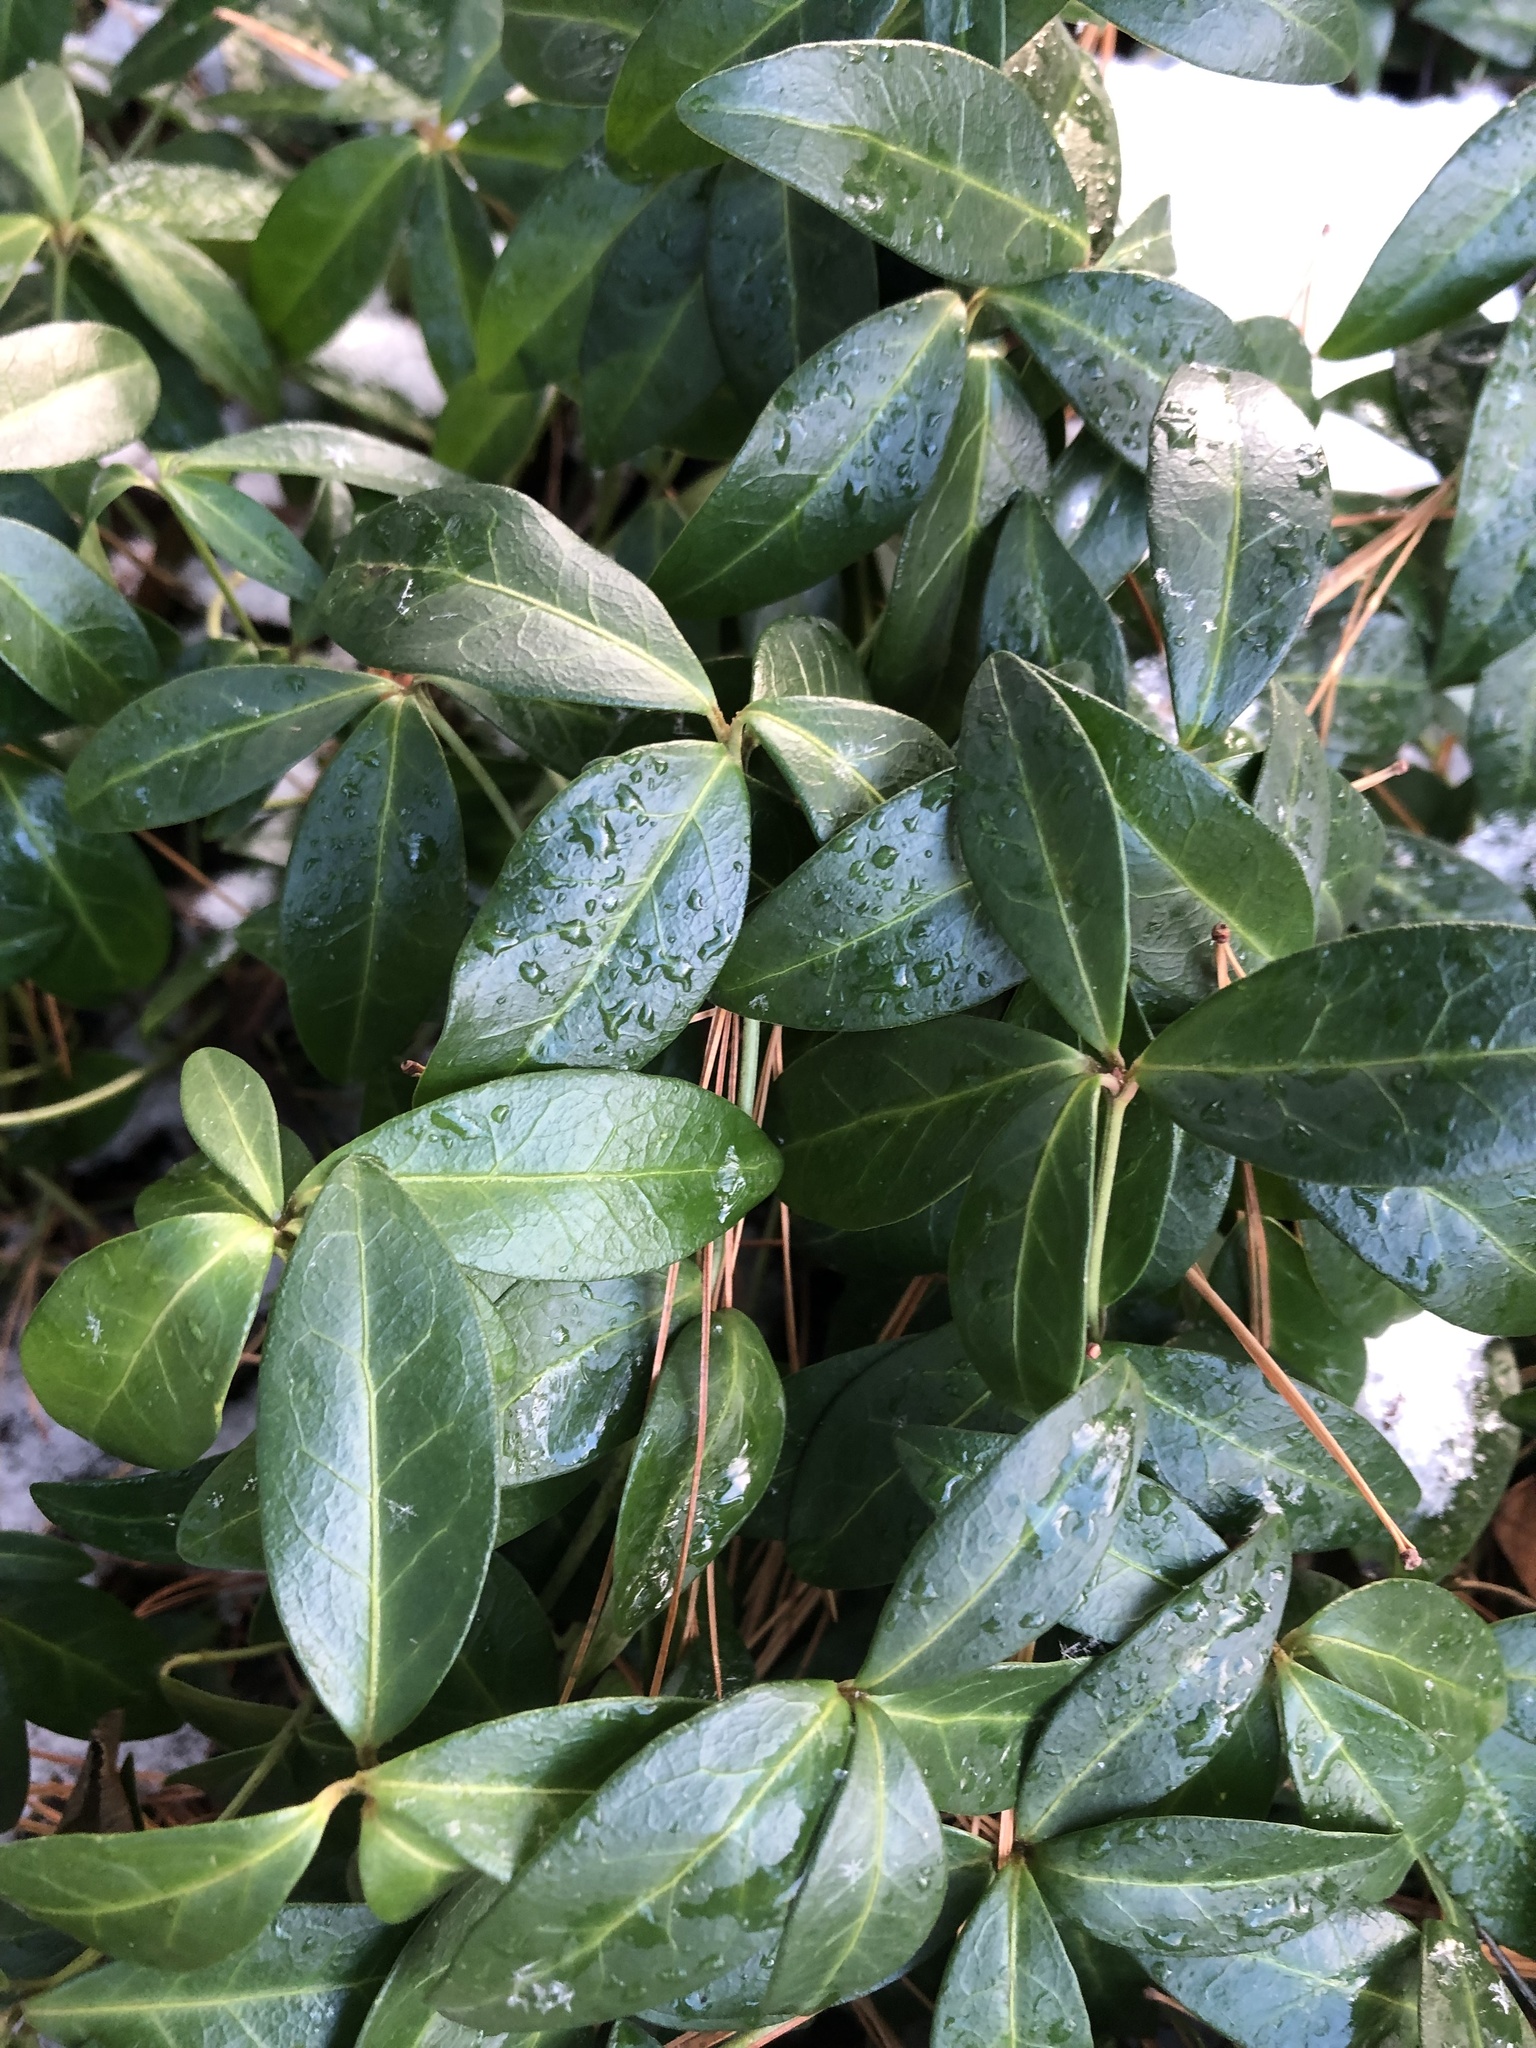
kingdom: Plantae
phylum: Tracheophyta
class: Magnoliopsida
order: Gentianales
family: Apocynaceae
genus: Vinca
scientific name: Vinca minor
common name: Lesser periwinkle
